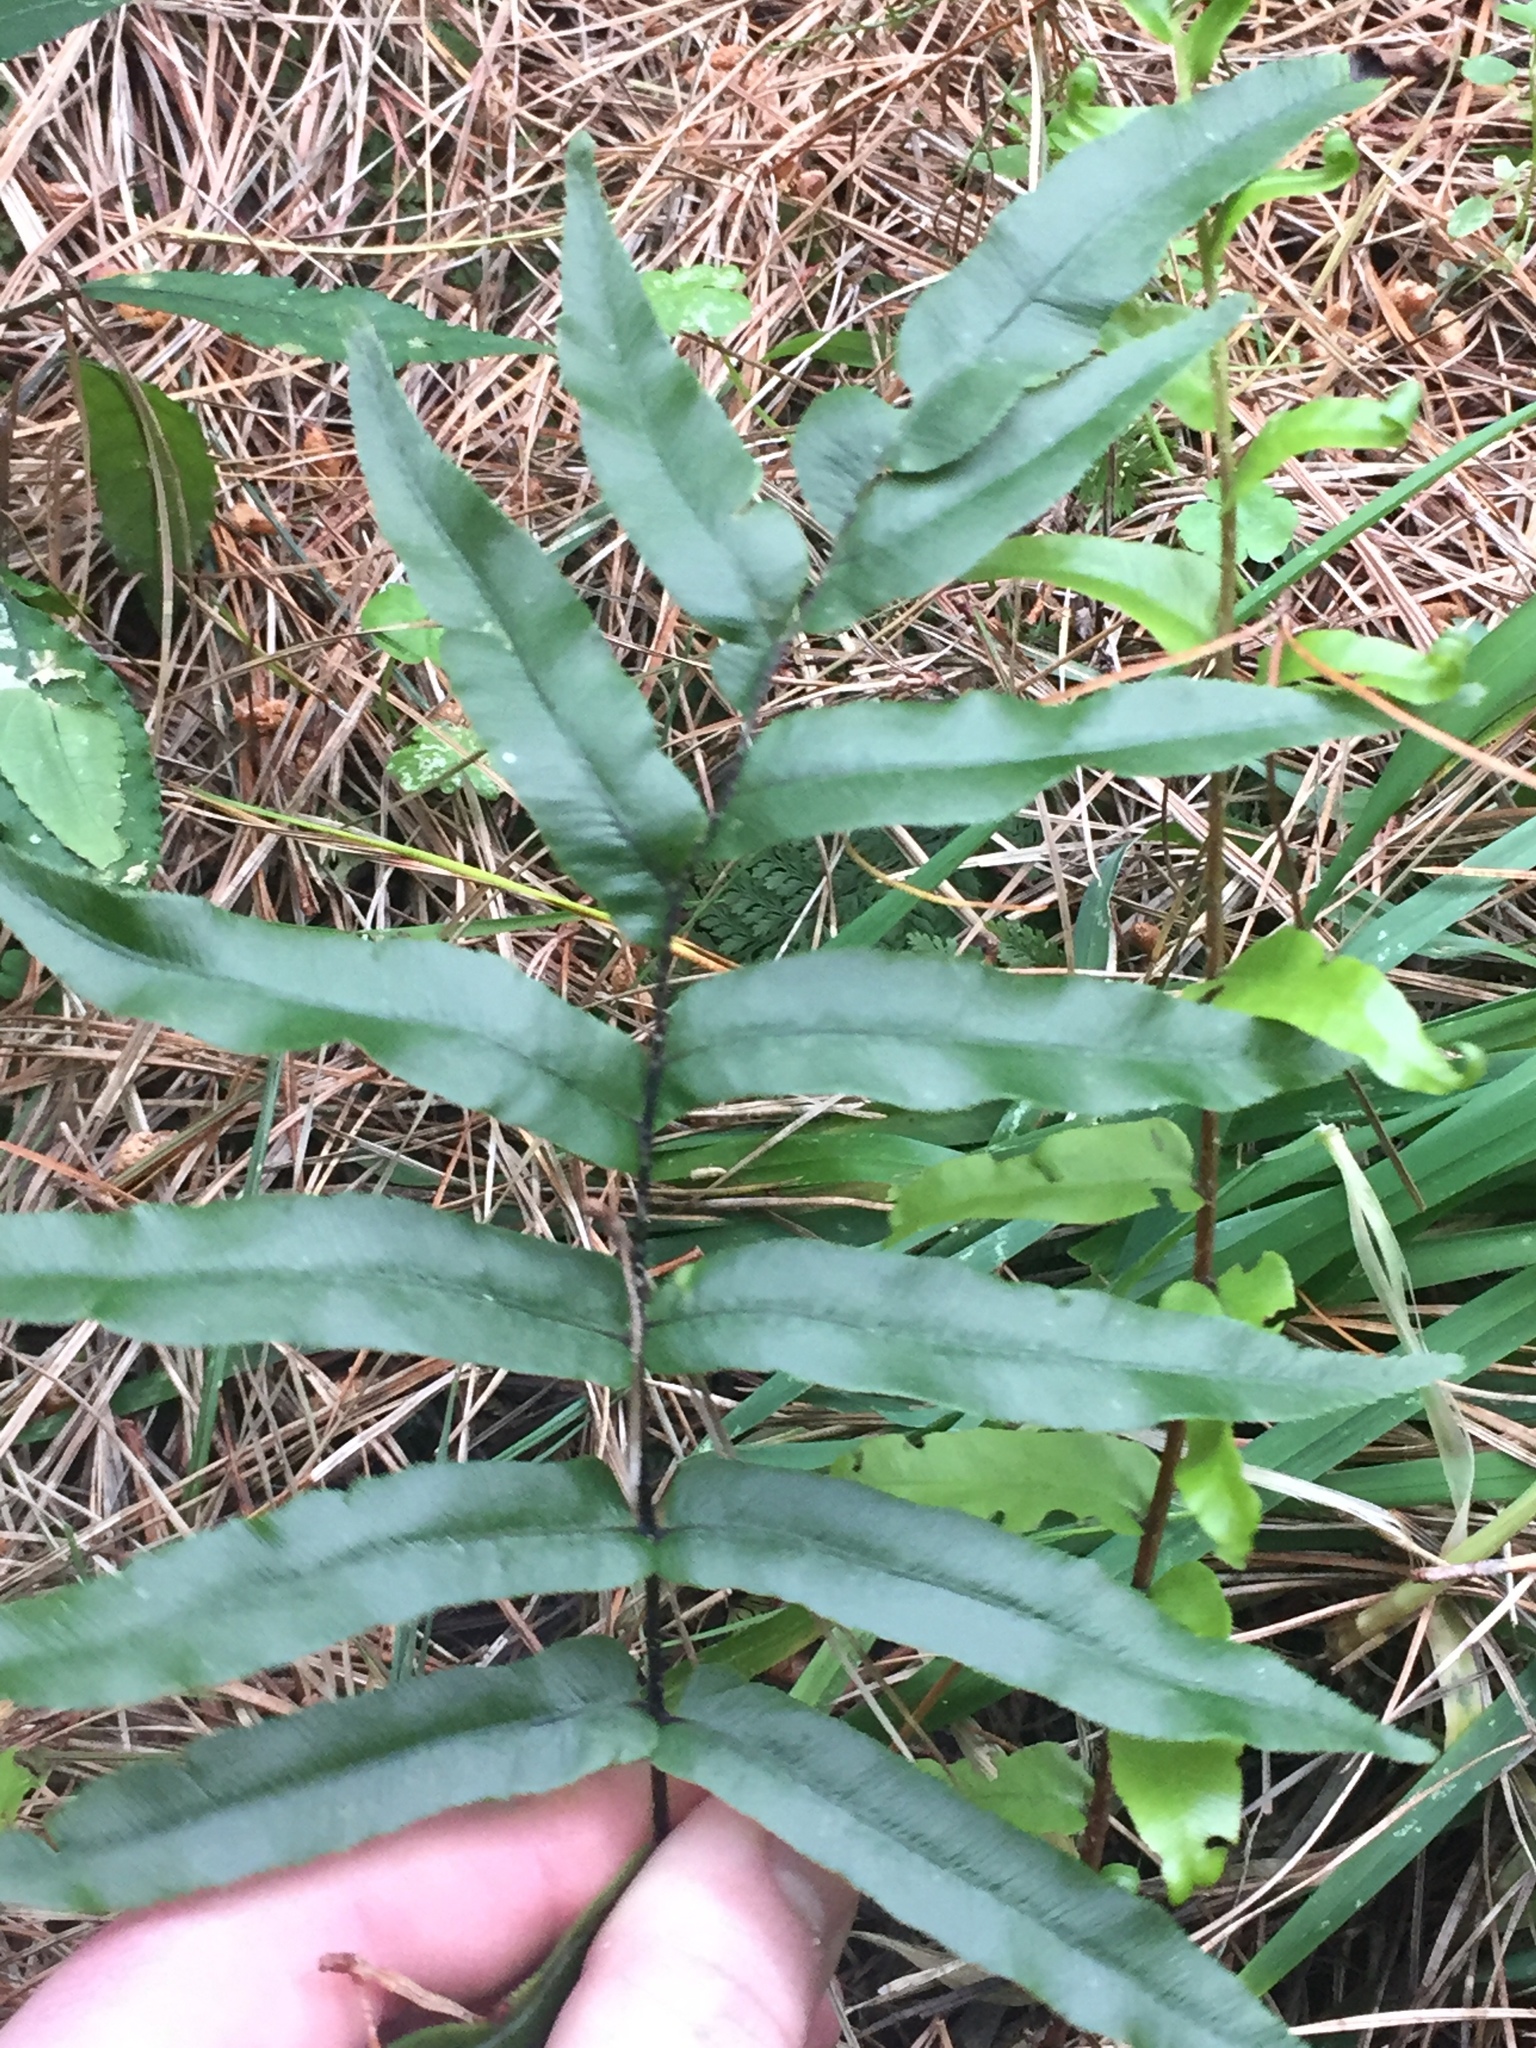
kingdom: Plantae
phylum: Tracheophyta
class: Polypodiopsida
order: Polypodiales
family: Blechnaceae
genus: Parablechnum
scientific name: Parablechnum novae-zelandiae
